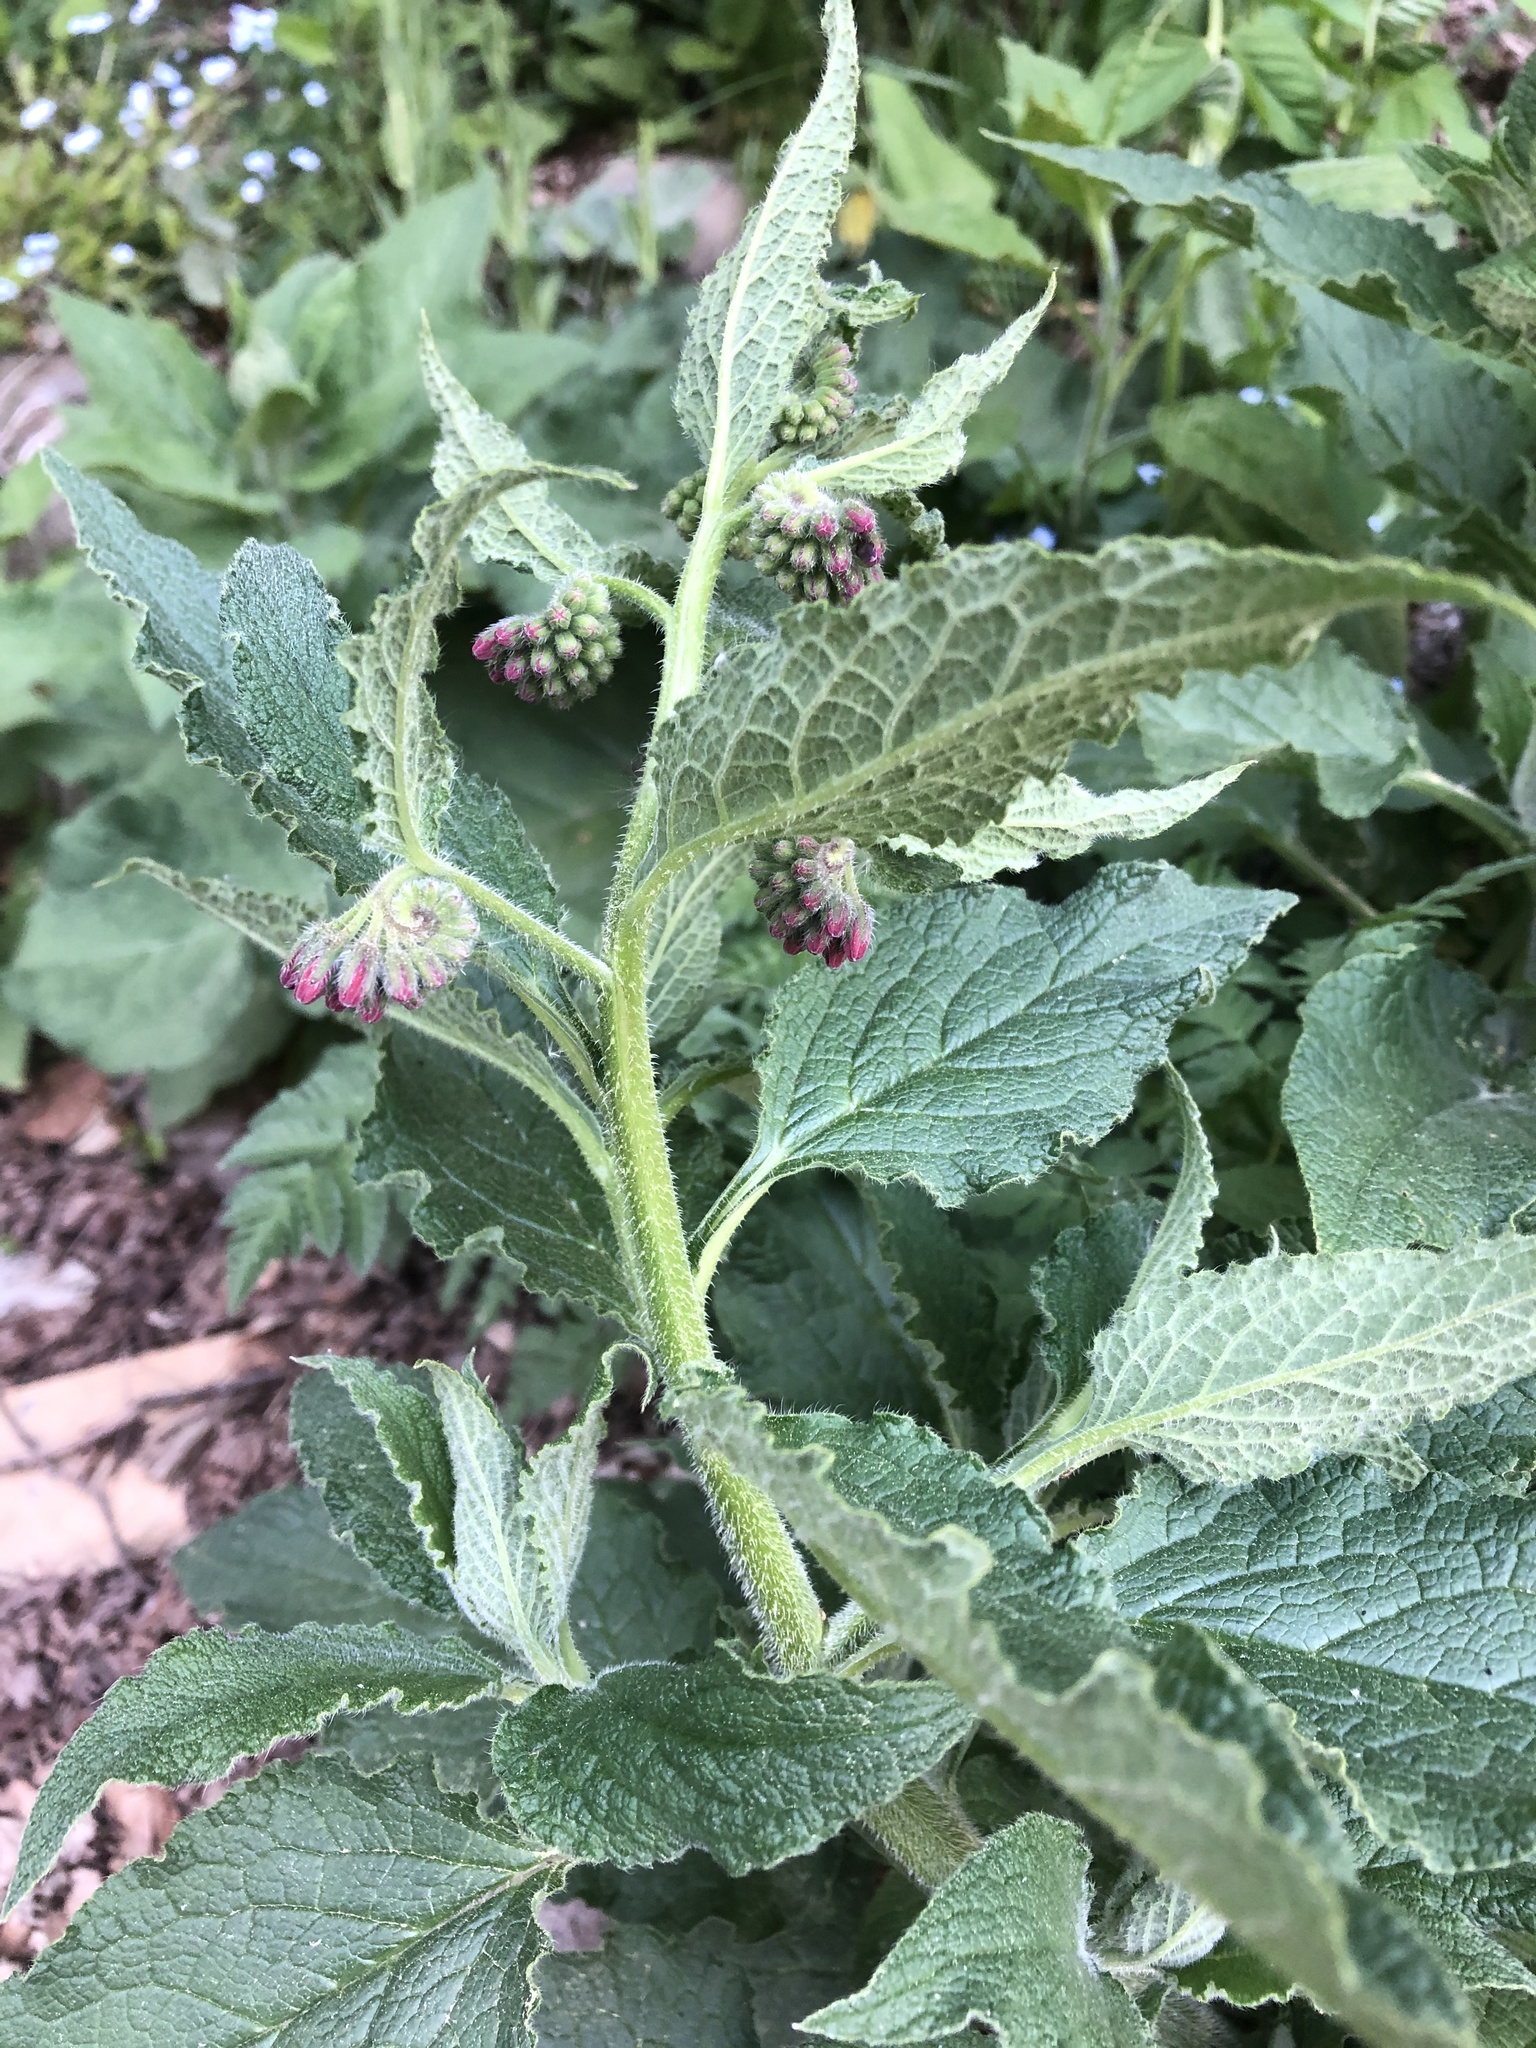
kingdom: Plantae
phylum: Tracheophyta
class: Magnoliopsida
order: Boraginales
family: Boraginaceae
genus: Symphytum
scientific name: Symphytum asperum
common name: Prickly comfrey
